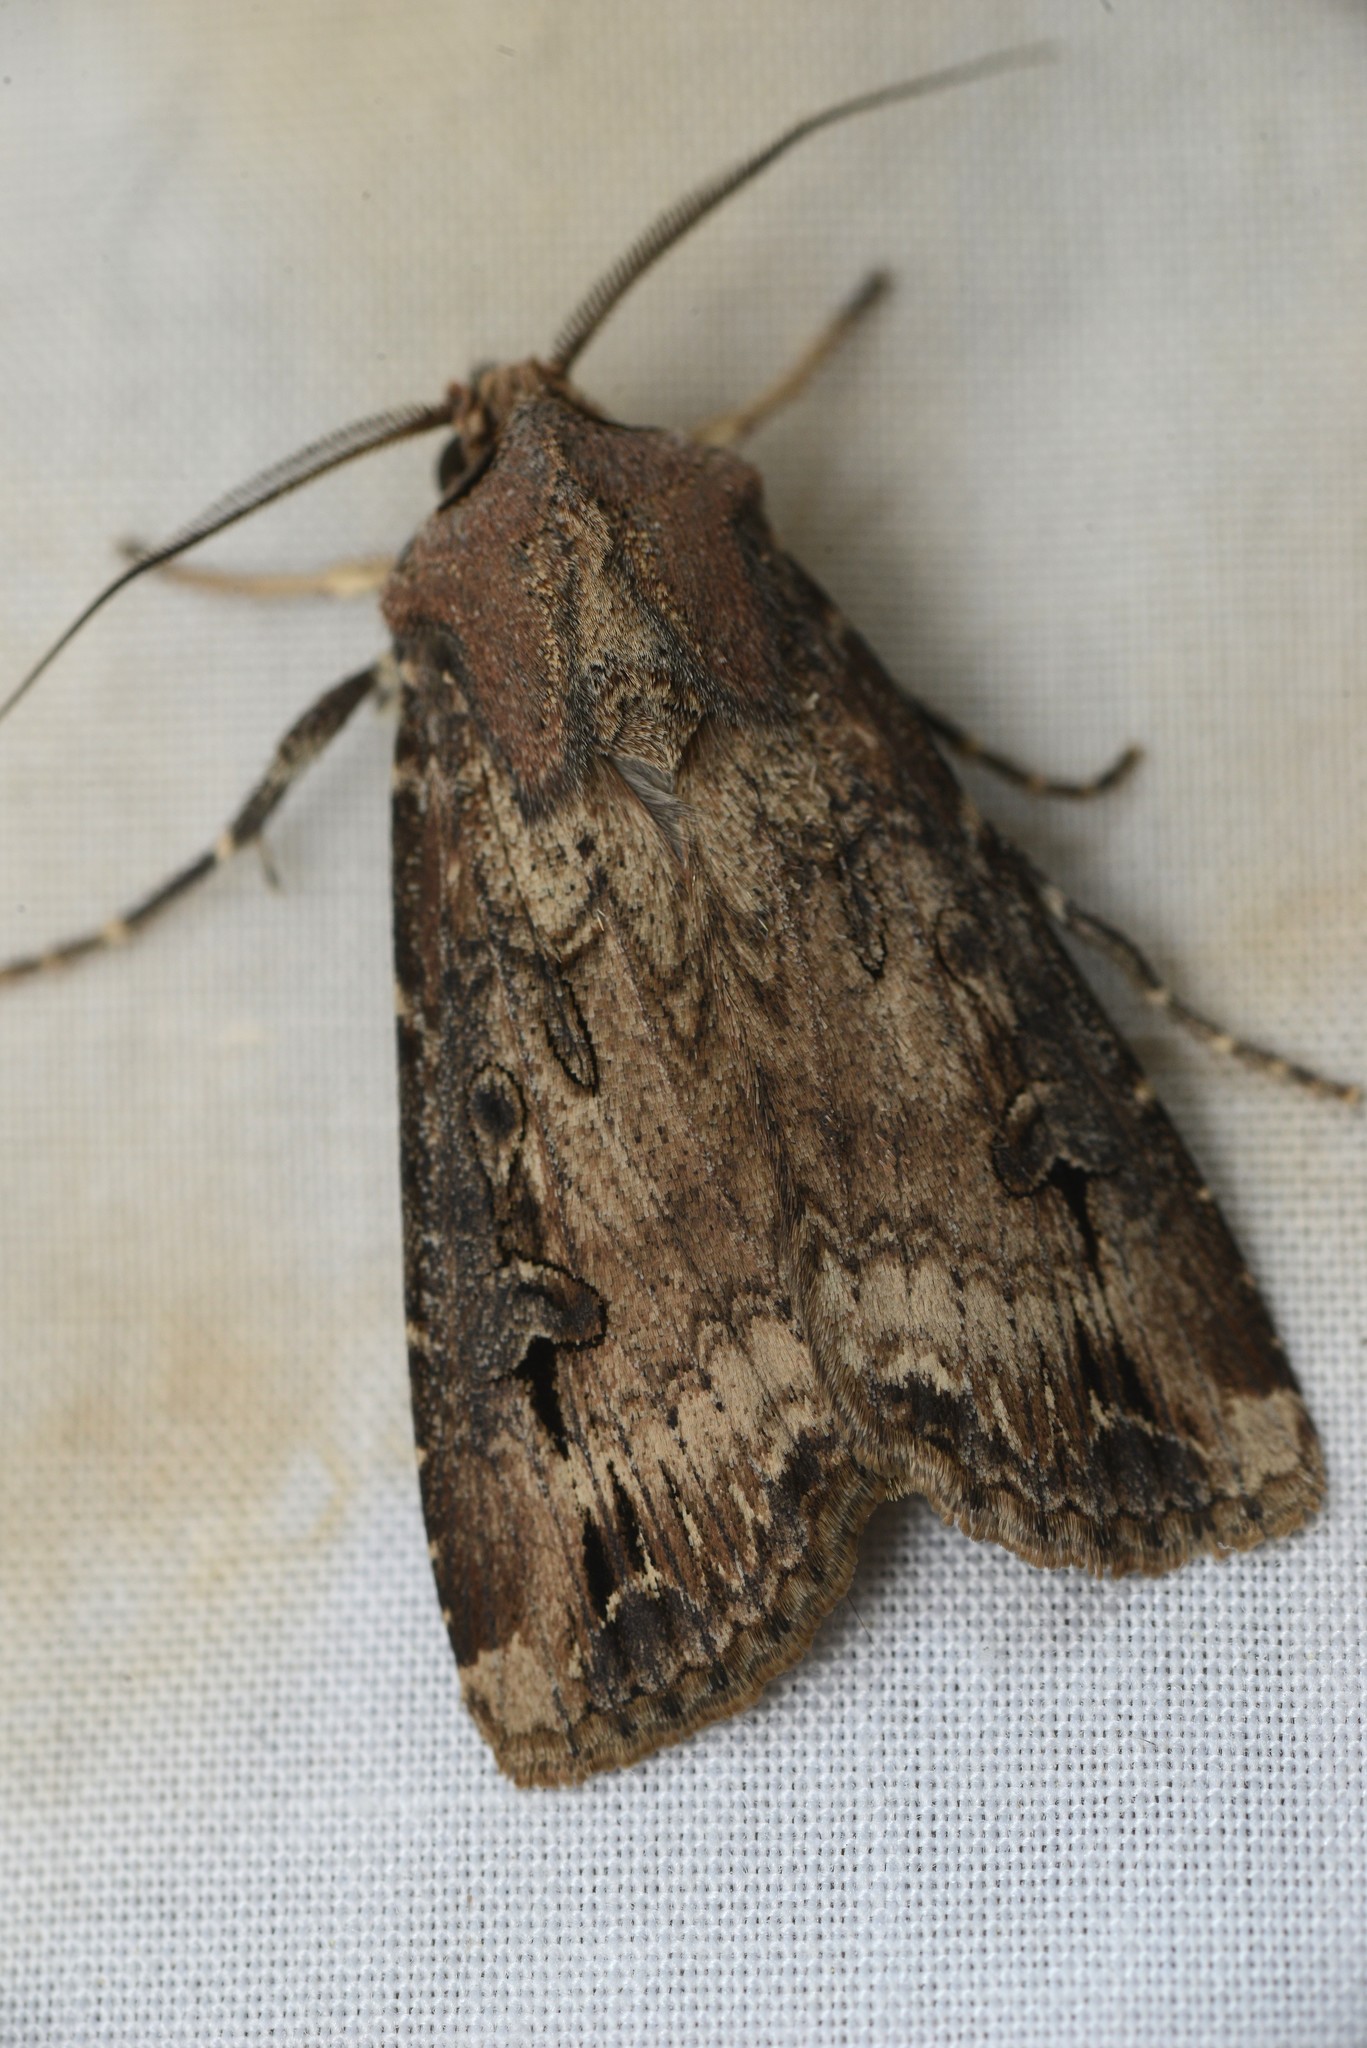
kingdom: Animalia
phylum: Arthropoda
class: Insecta
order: Lepidoptera
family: Noctuidae
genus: Agrotis
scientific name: Agrotis ipsilon
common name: Dark sword-grass
